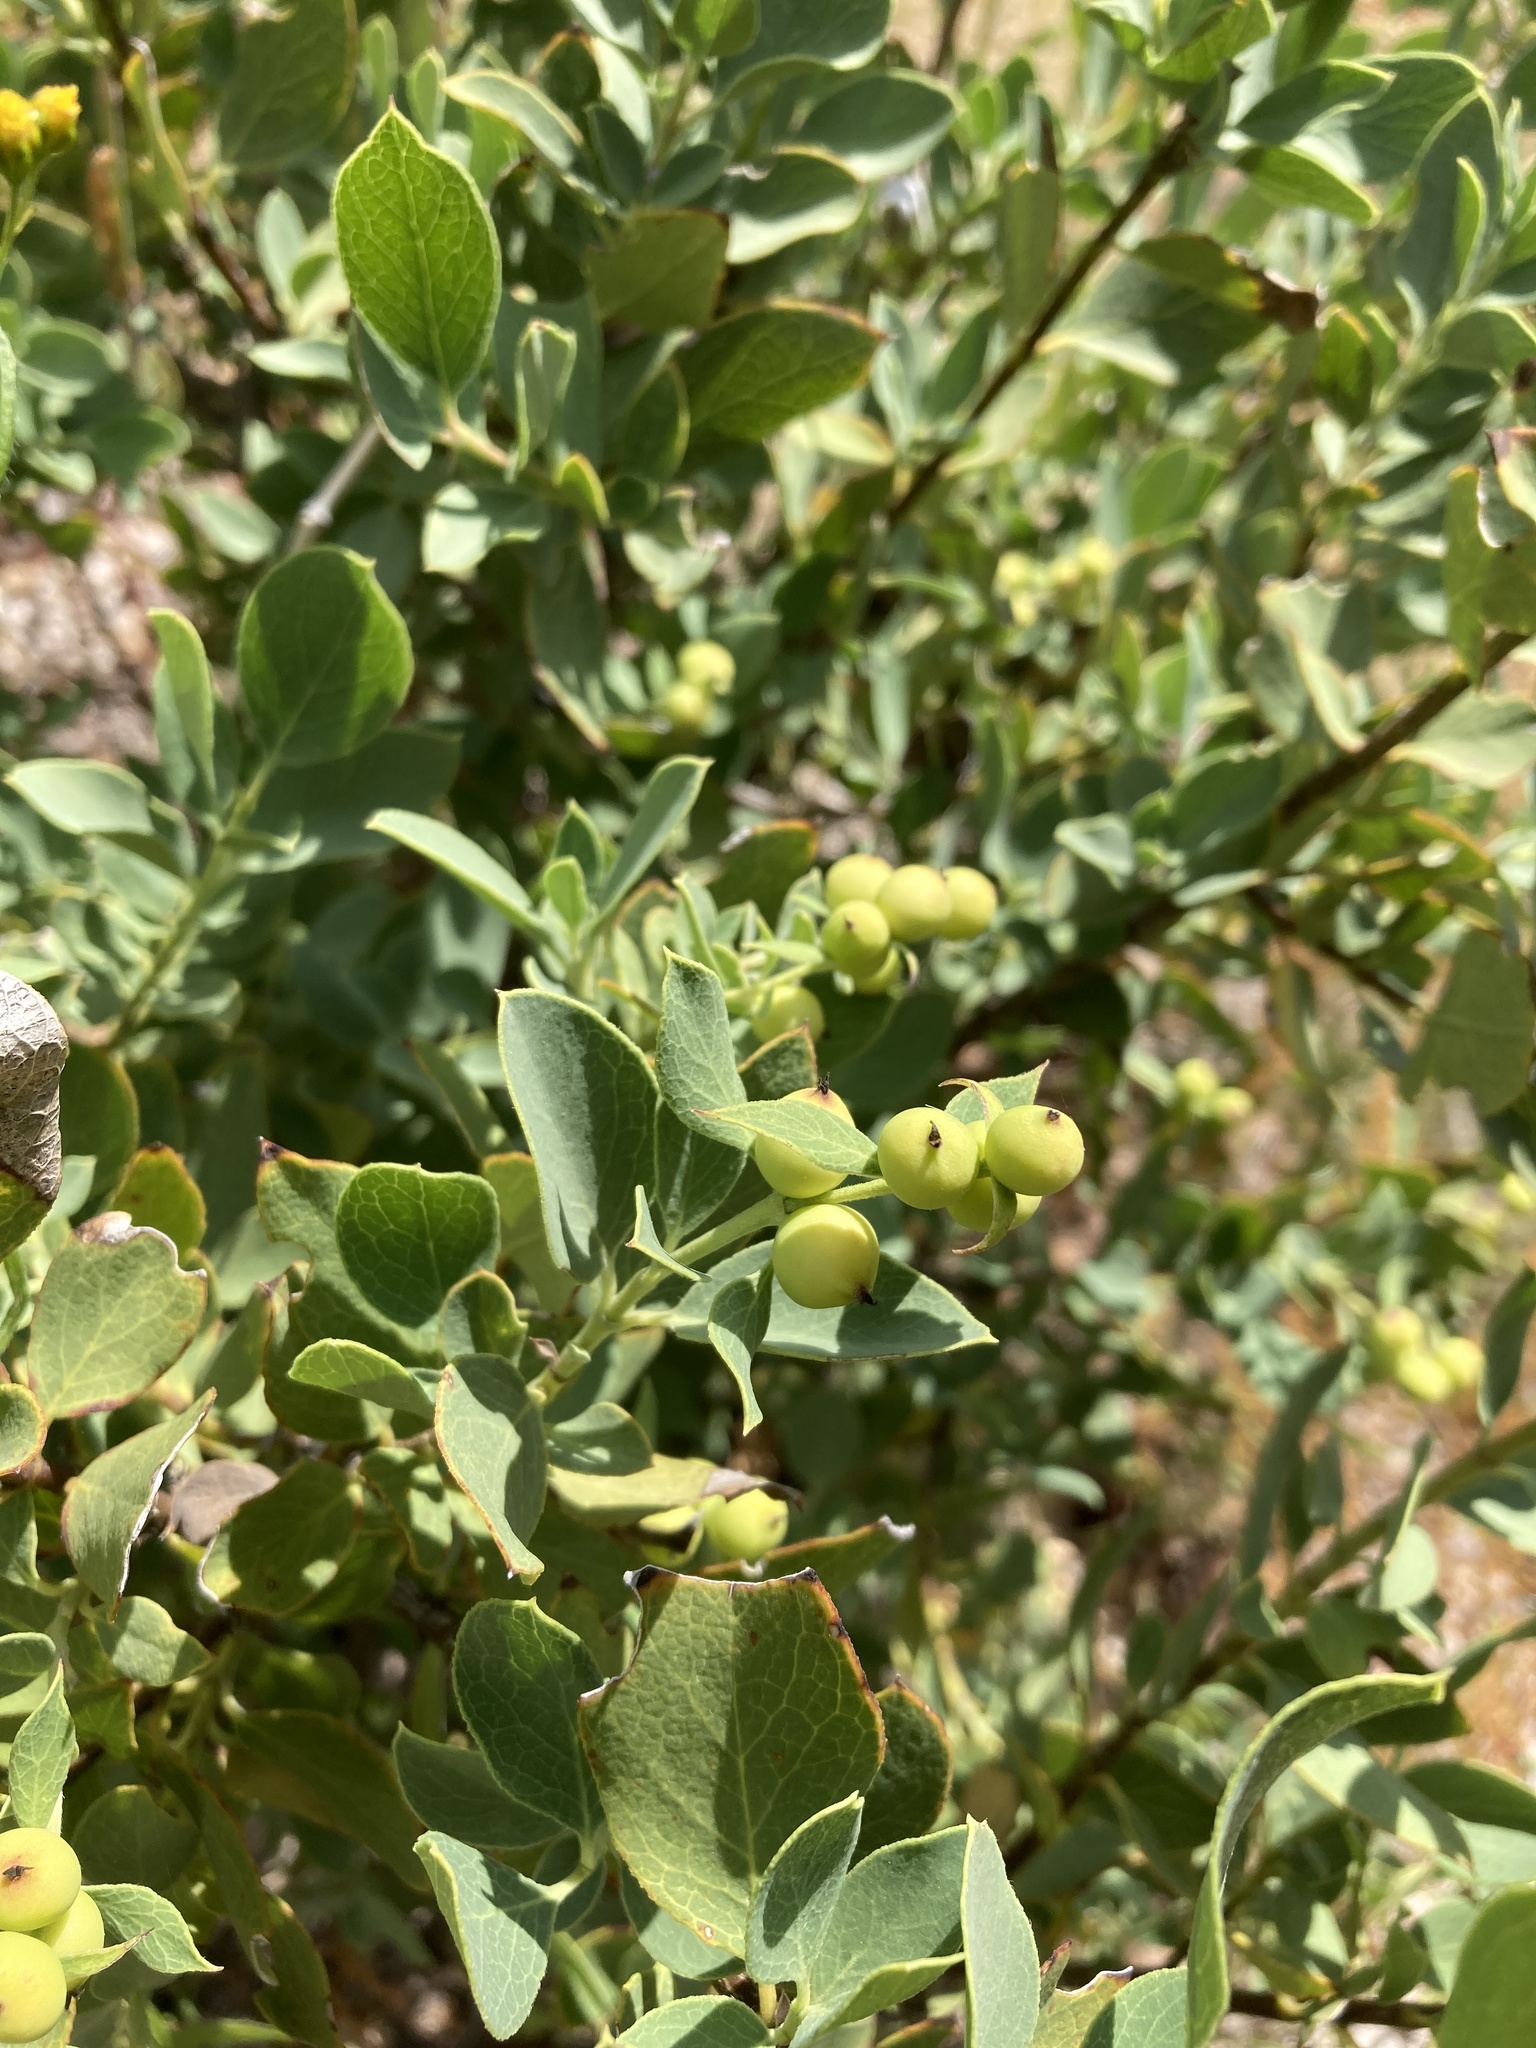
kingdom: Plantae
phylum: Tracheophyta
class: Magnoliopsida
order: Garryales
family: Garryaceae
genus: Garrya
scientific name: Garrya wrightii
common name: Wright's silktassel
